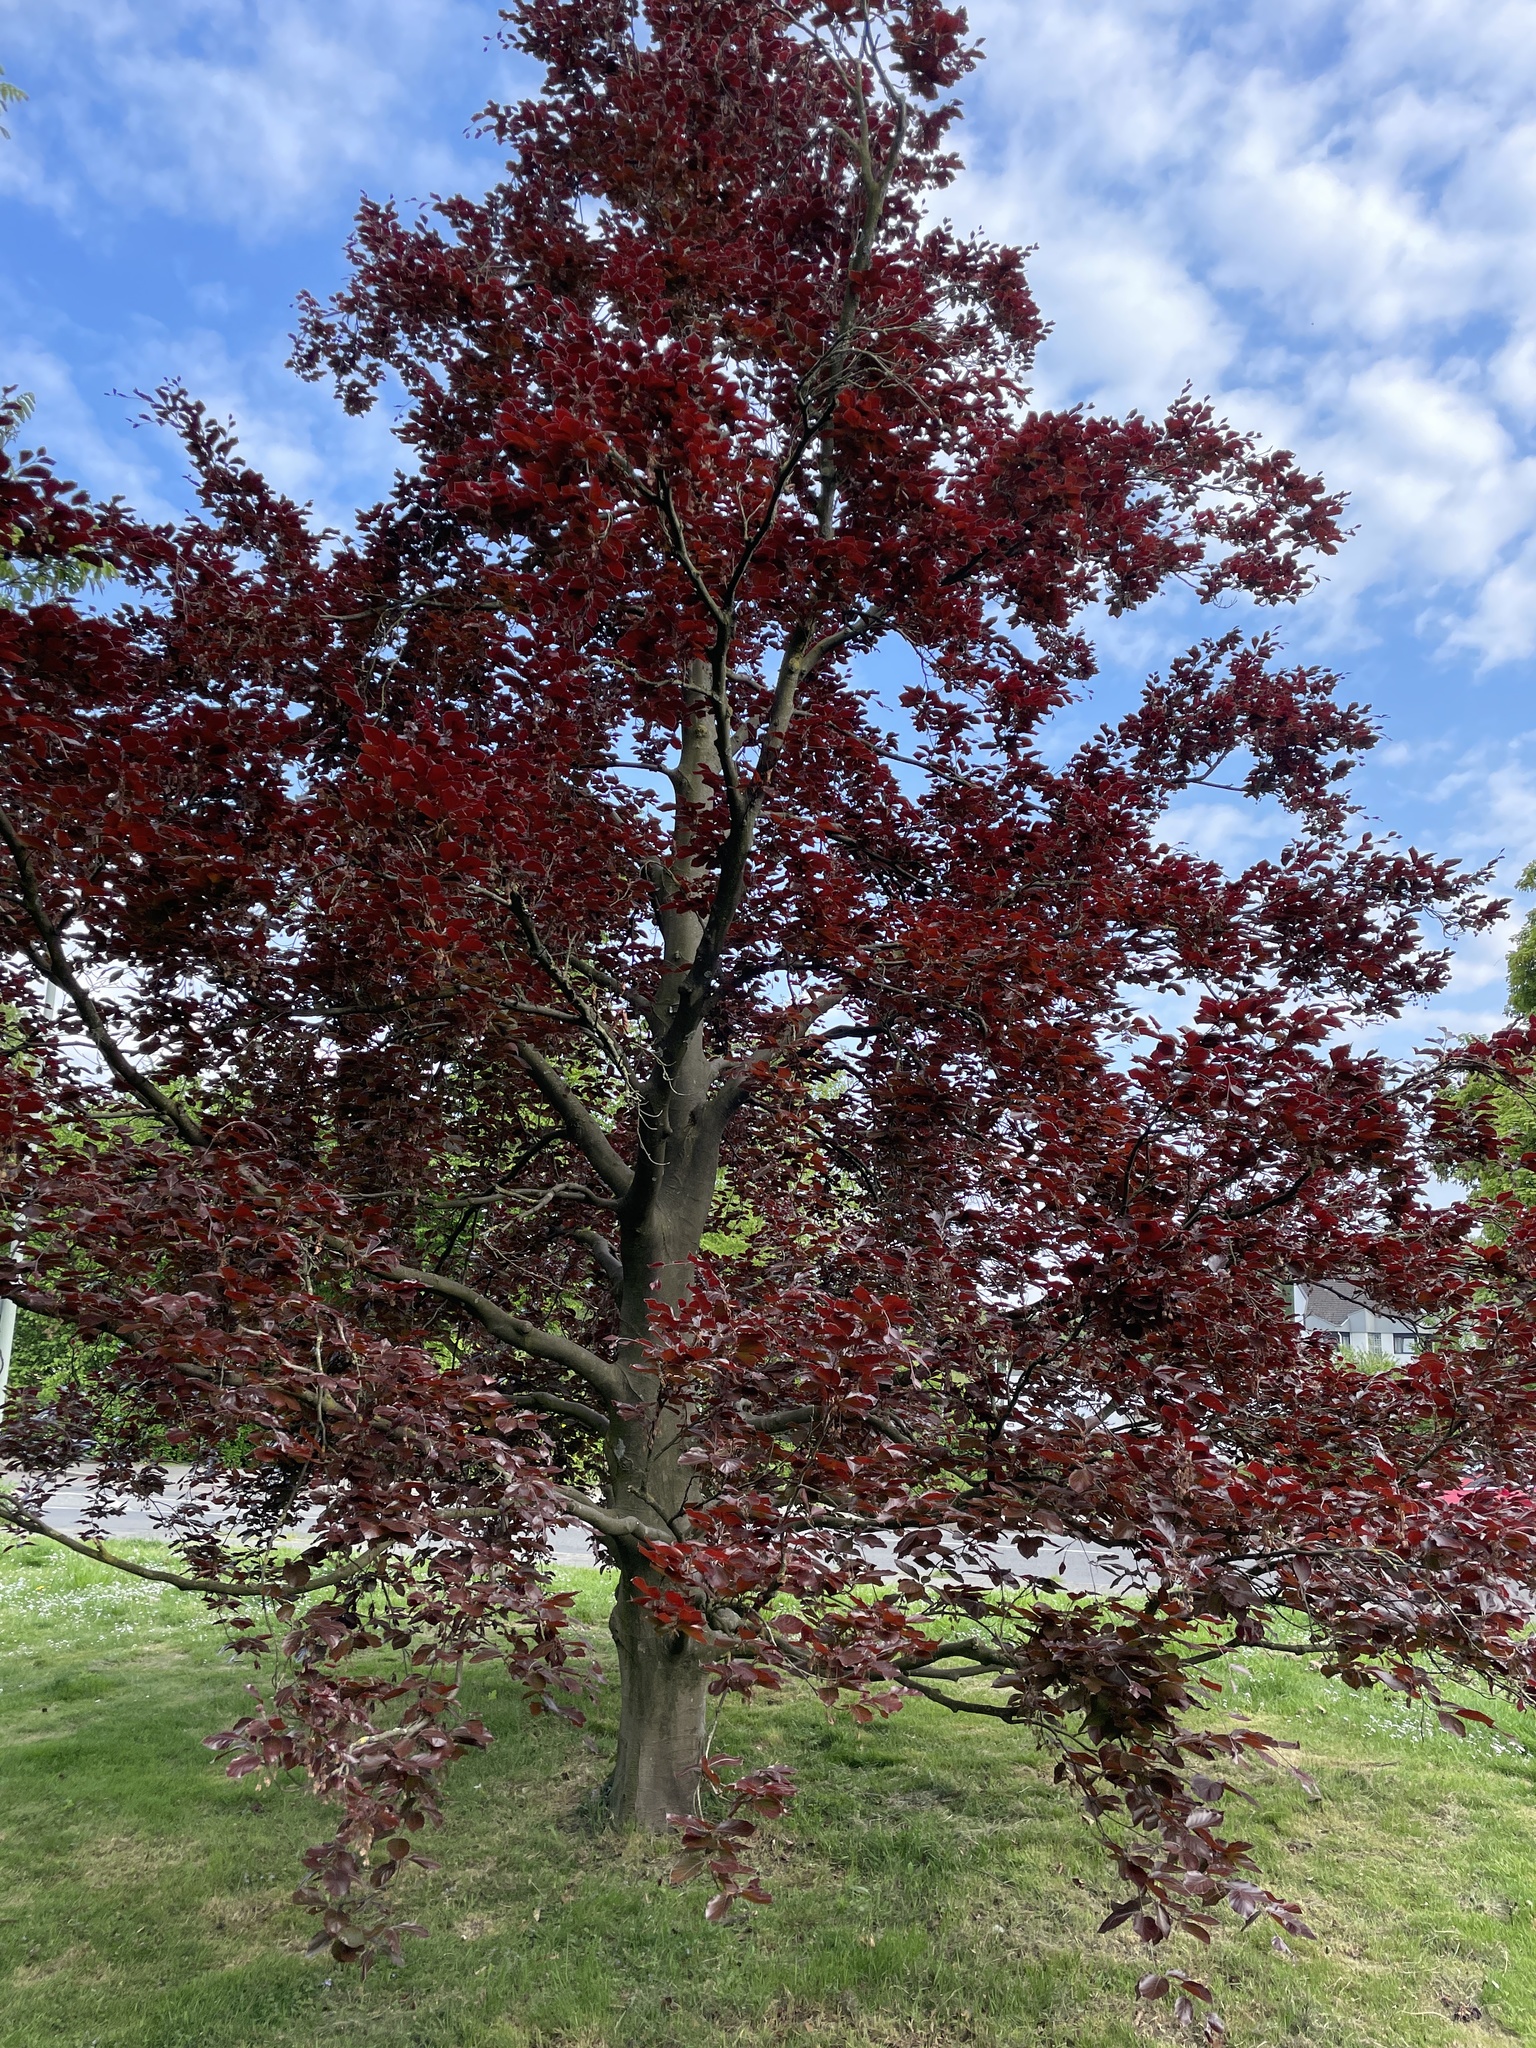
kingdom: Plantae
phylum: Tracheophyta
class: Magnoliopsida
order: Fagales
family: Fagaceae
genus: Fagus
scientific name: Fagus sylvatica
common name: Beech
